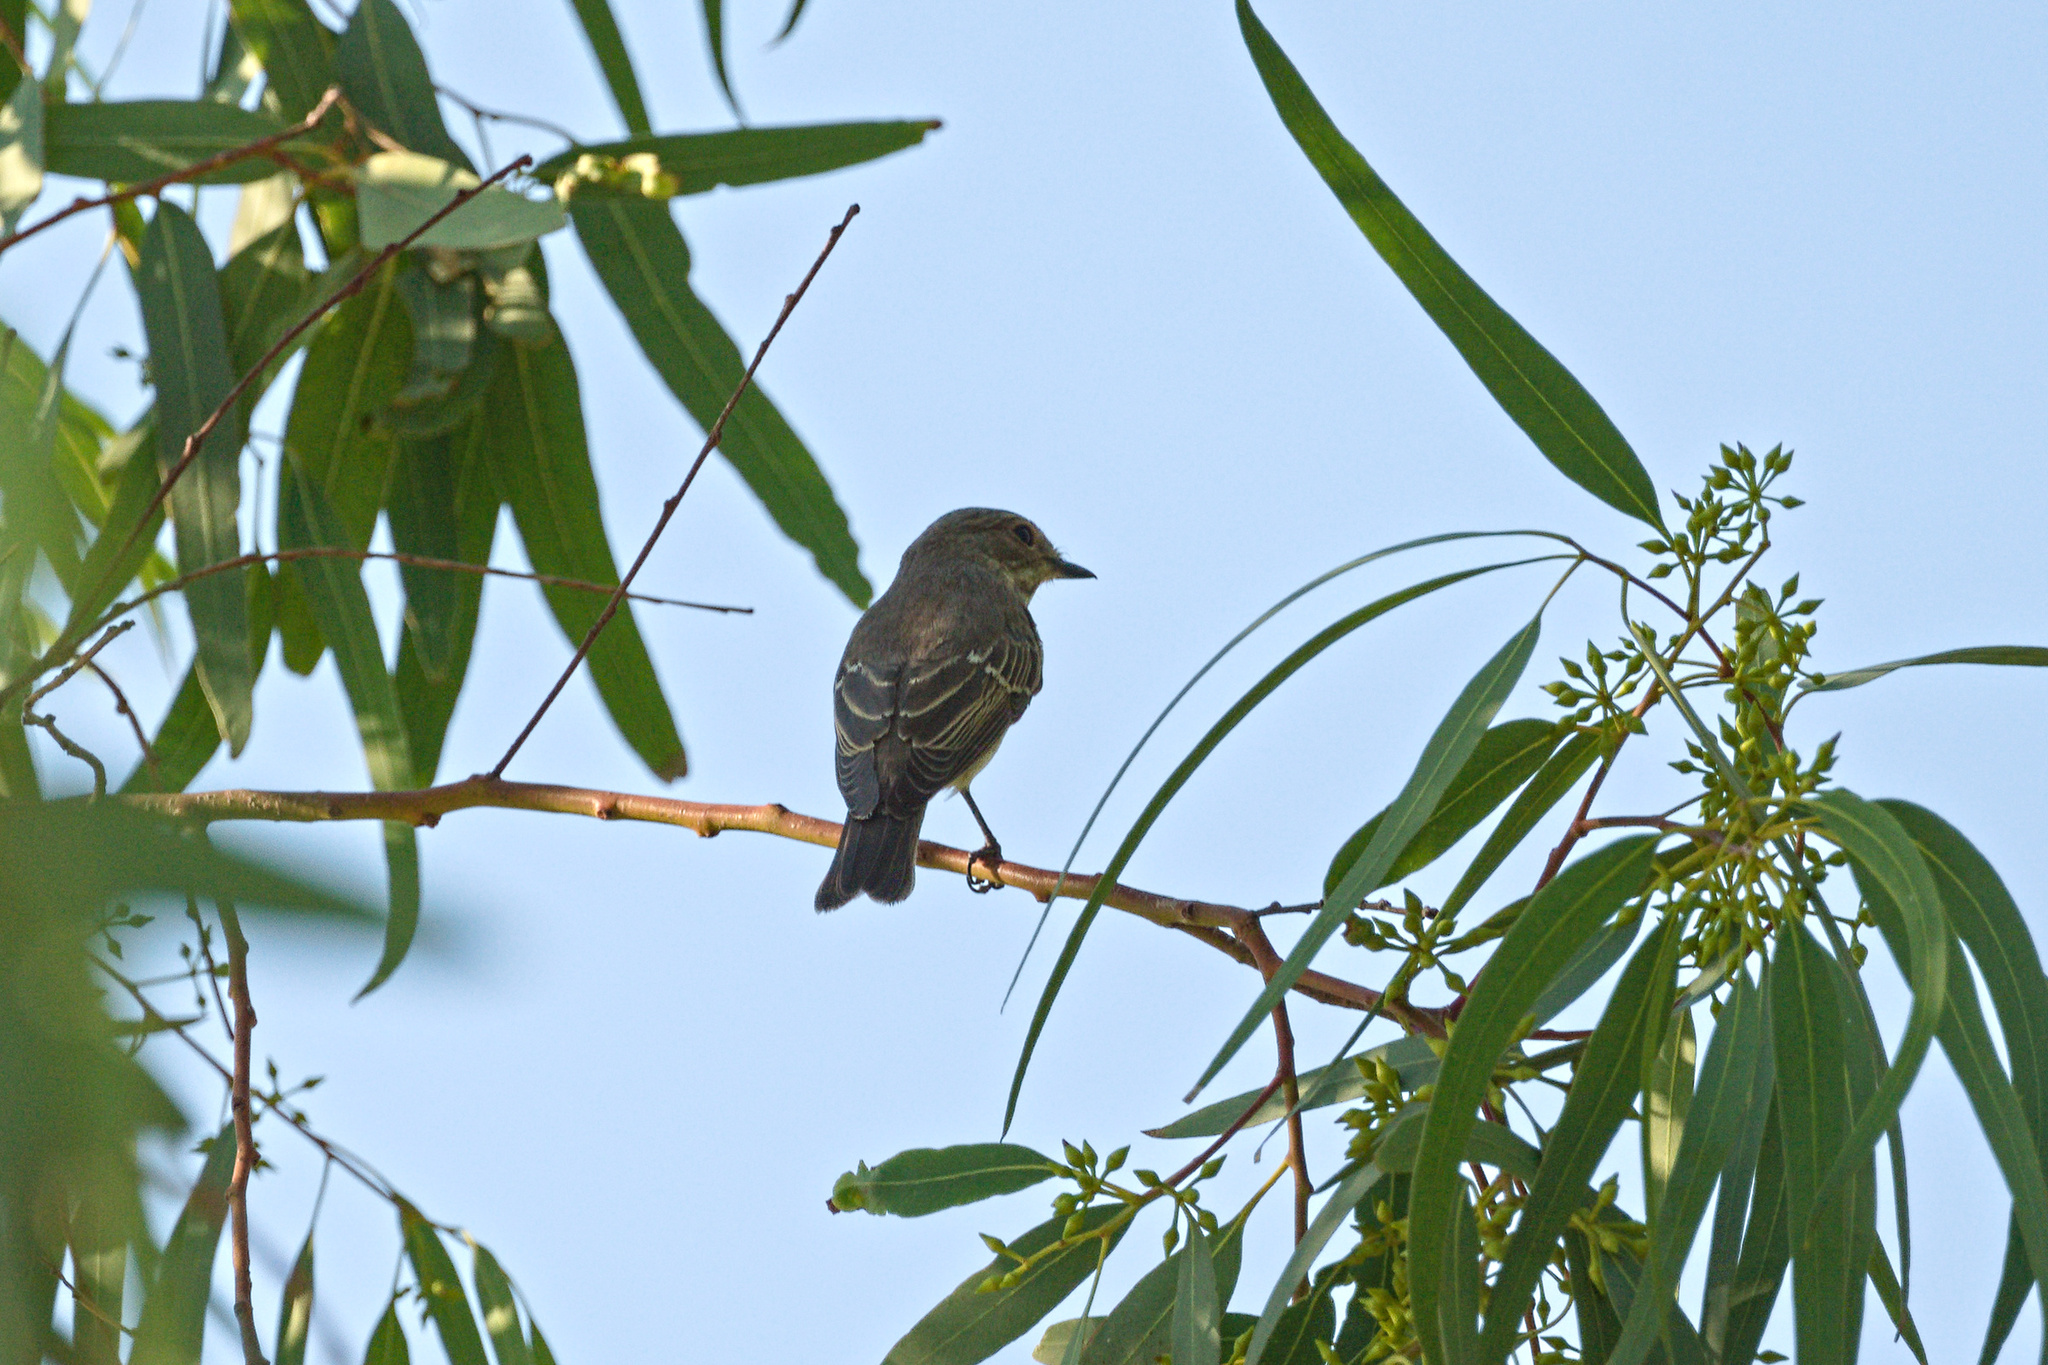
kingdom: Animalia
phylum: Chordata
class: Aves
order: Passeriformes
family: Muscicapidae
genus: Muscicapa
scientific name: Muscicapa striata
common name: Spotted flycatcher
